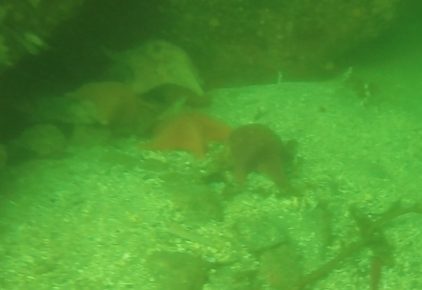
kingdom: Animalia
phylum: Echinodermata
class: Asteroidea
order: Valvatida
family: Asterinidae
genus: Patiria
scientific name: Patiria miniata
